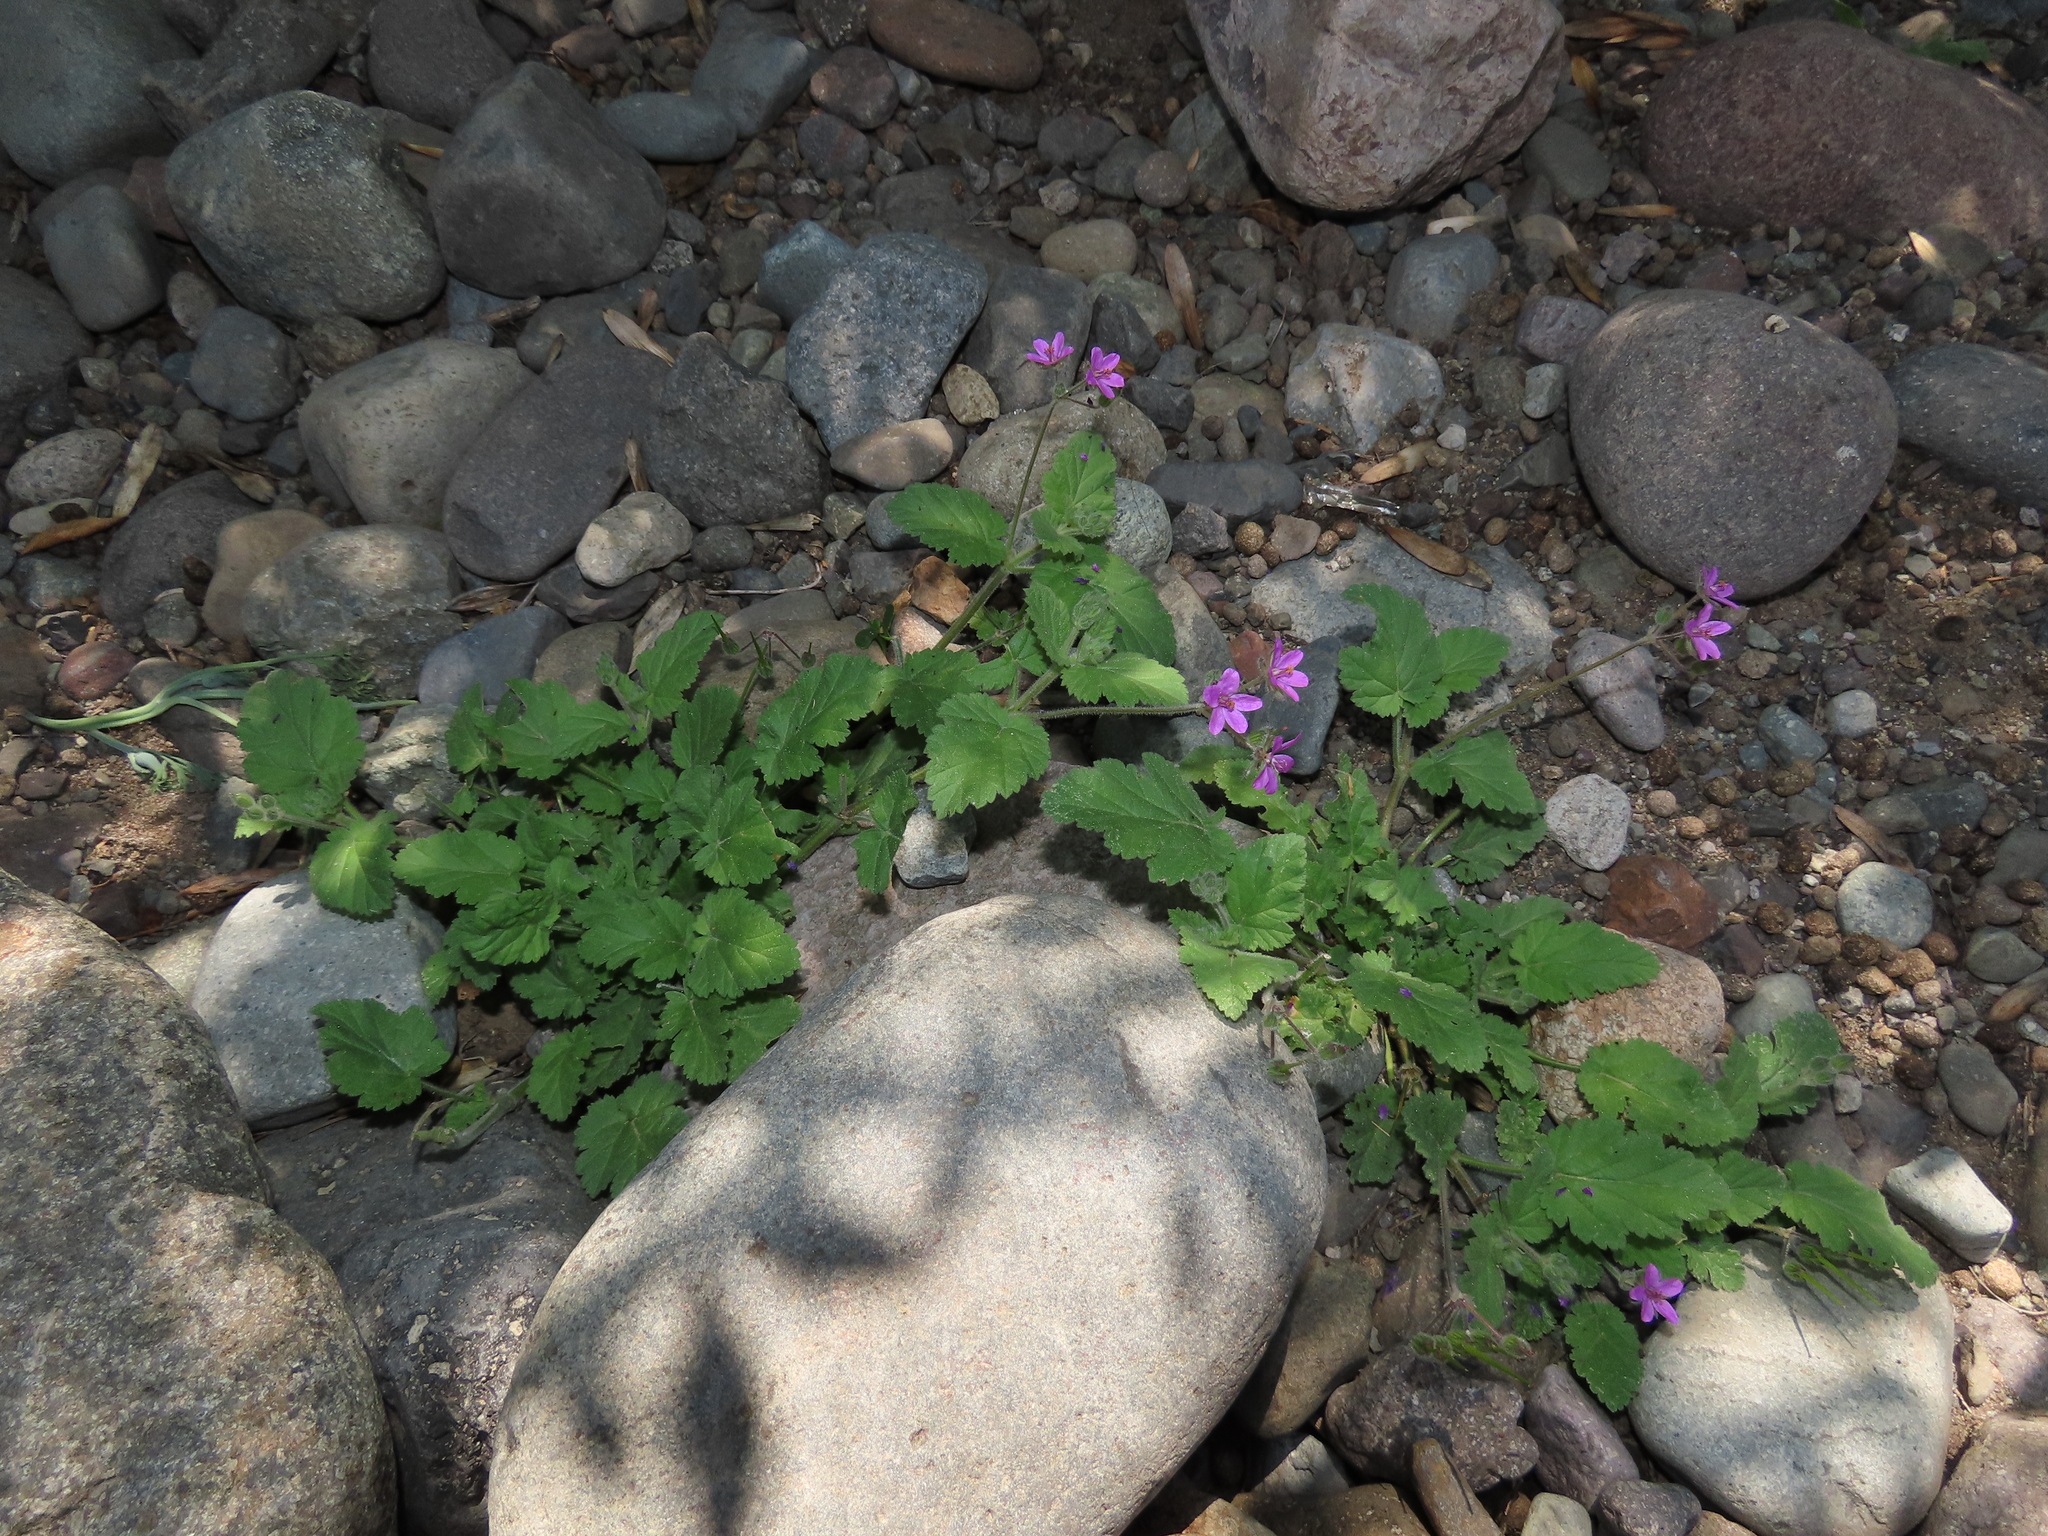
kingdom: Plantae
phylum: Tracheophyta
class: Magnoliopsida
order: Geraniales
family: Geraniaceae
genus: Erodium
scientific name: Erodium malacoides
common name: Soft stork's-bill
